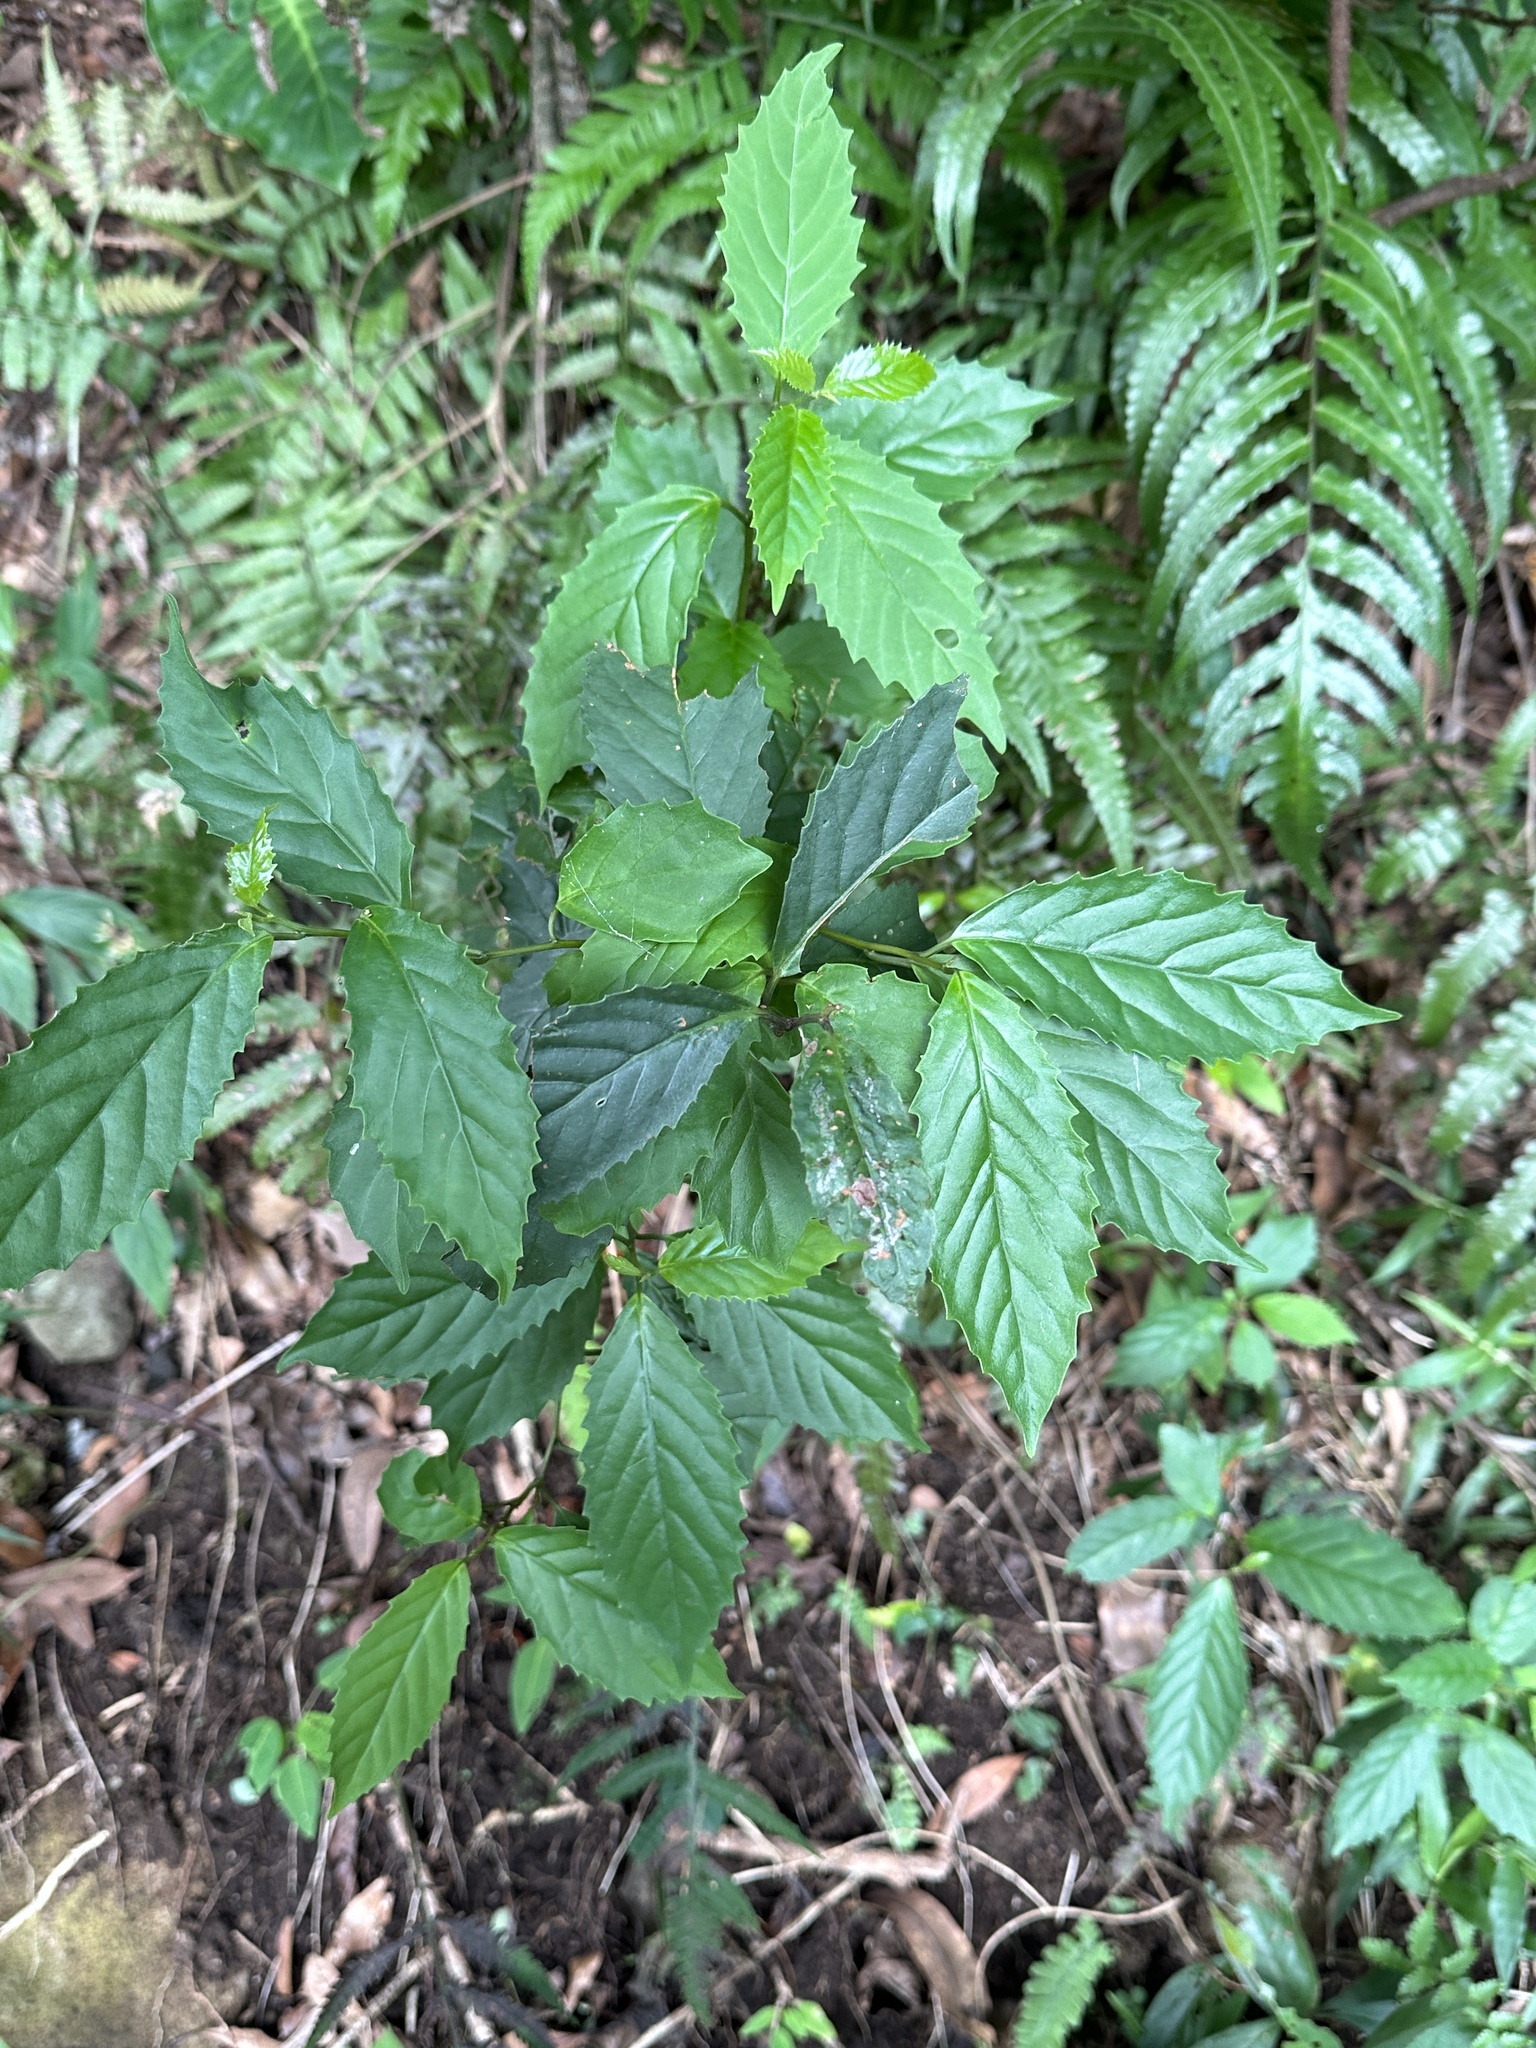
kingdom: Plantae
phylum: Tracheophyta
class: Magnoliopsida
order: Ericales
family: Primulaceae
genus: Maesa
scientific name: Maesa perlaria
